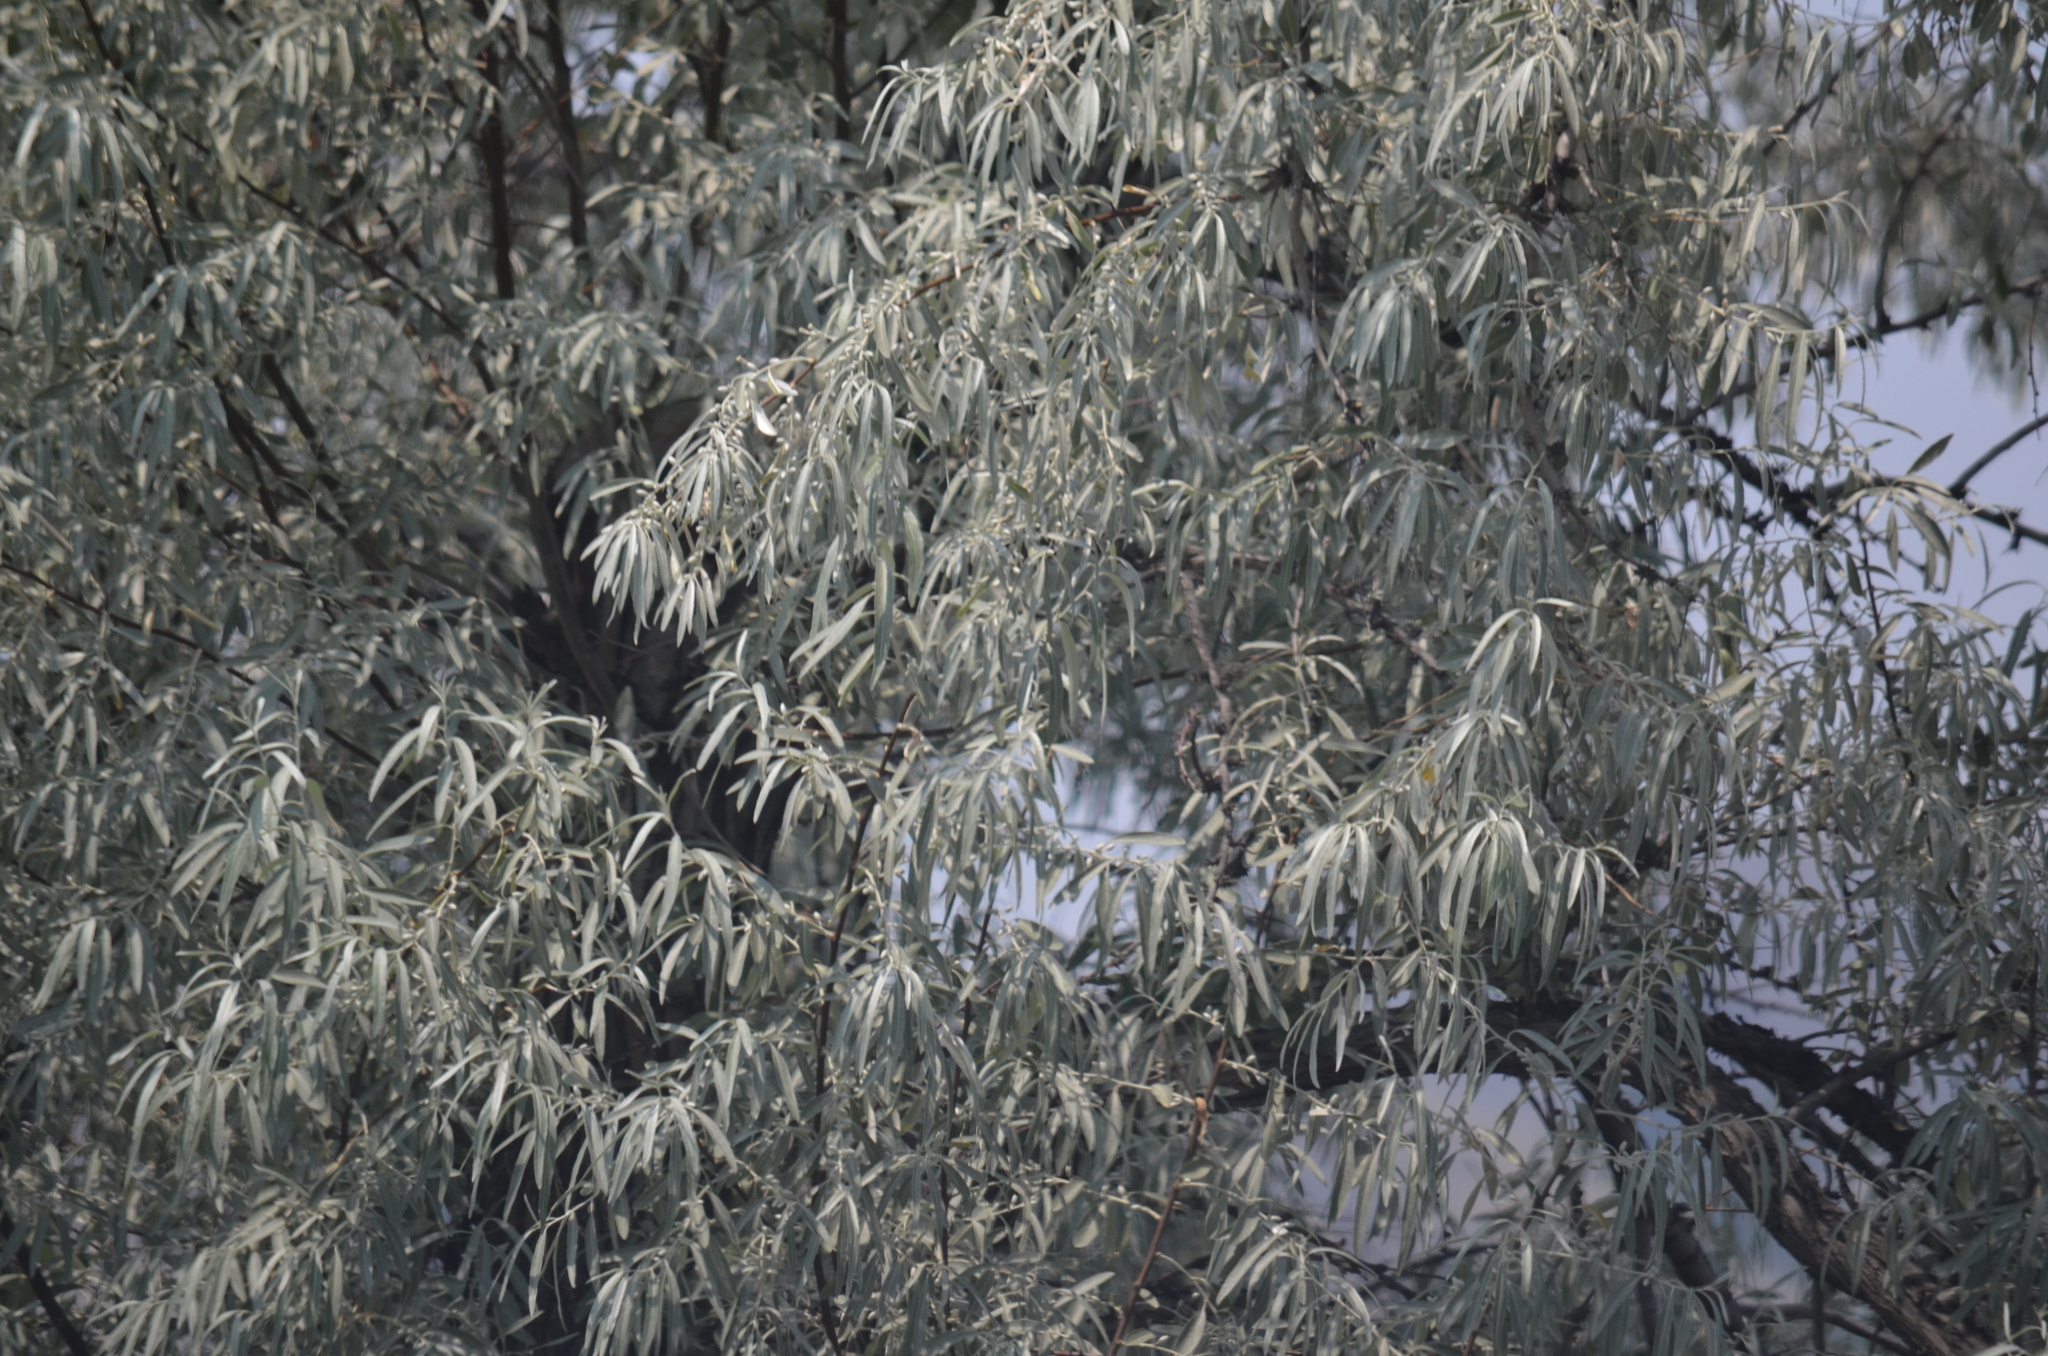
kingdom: Plantae
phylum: Tracheophyta
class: Magnoliopsida
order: Rosales
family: Elaeagnaceae
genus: Elaeagnus
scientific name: Elaeagnus angustifolia
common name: Russian olive
